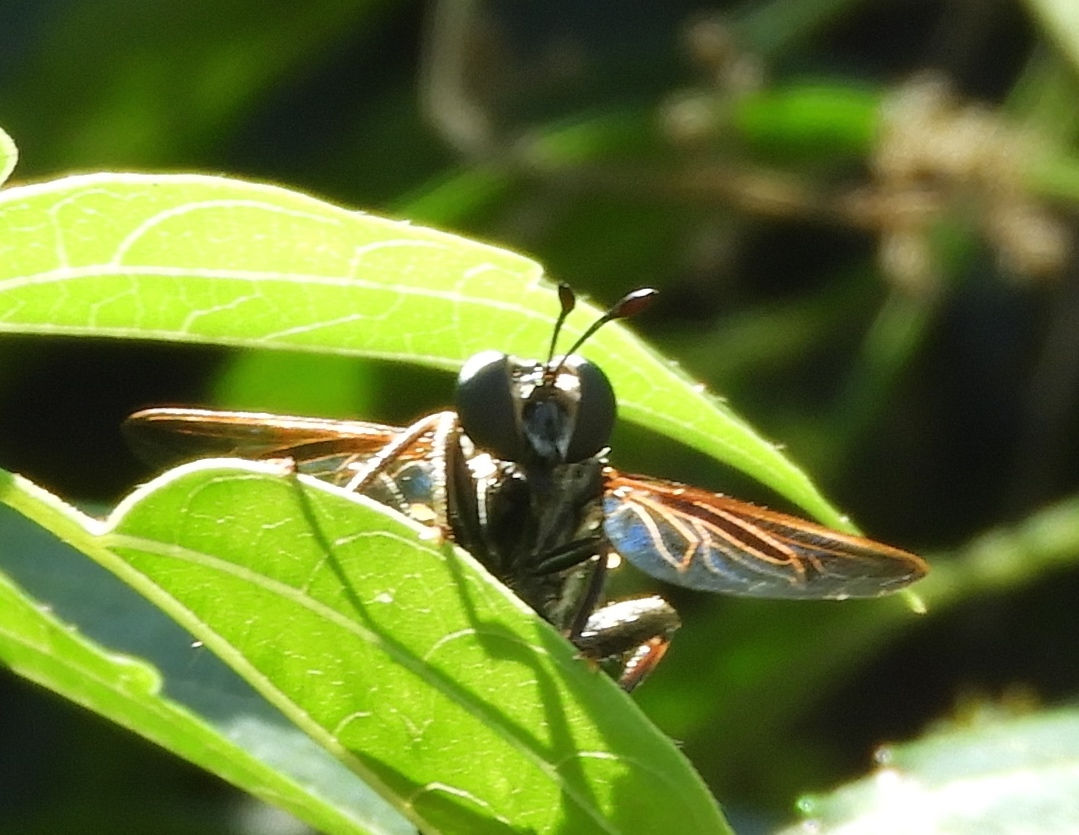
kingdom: Animalia
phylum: Arthropoda
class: Insecta
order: Diptera
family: Mydidae
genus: Mydas
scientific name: Mydas
